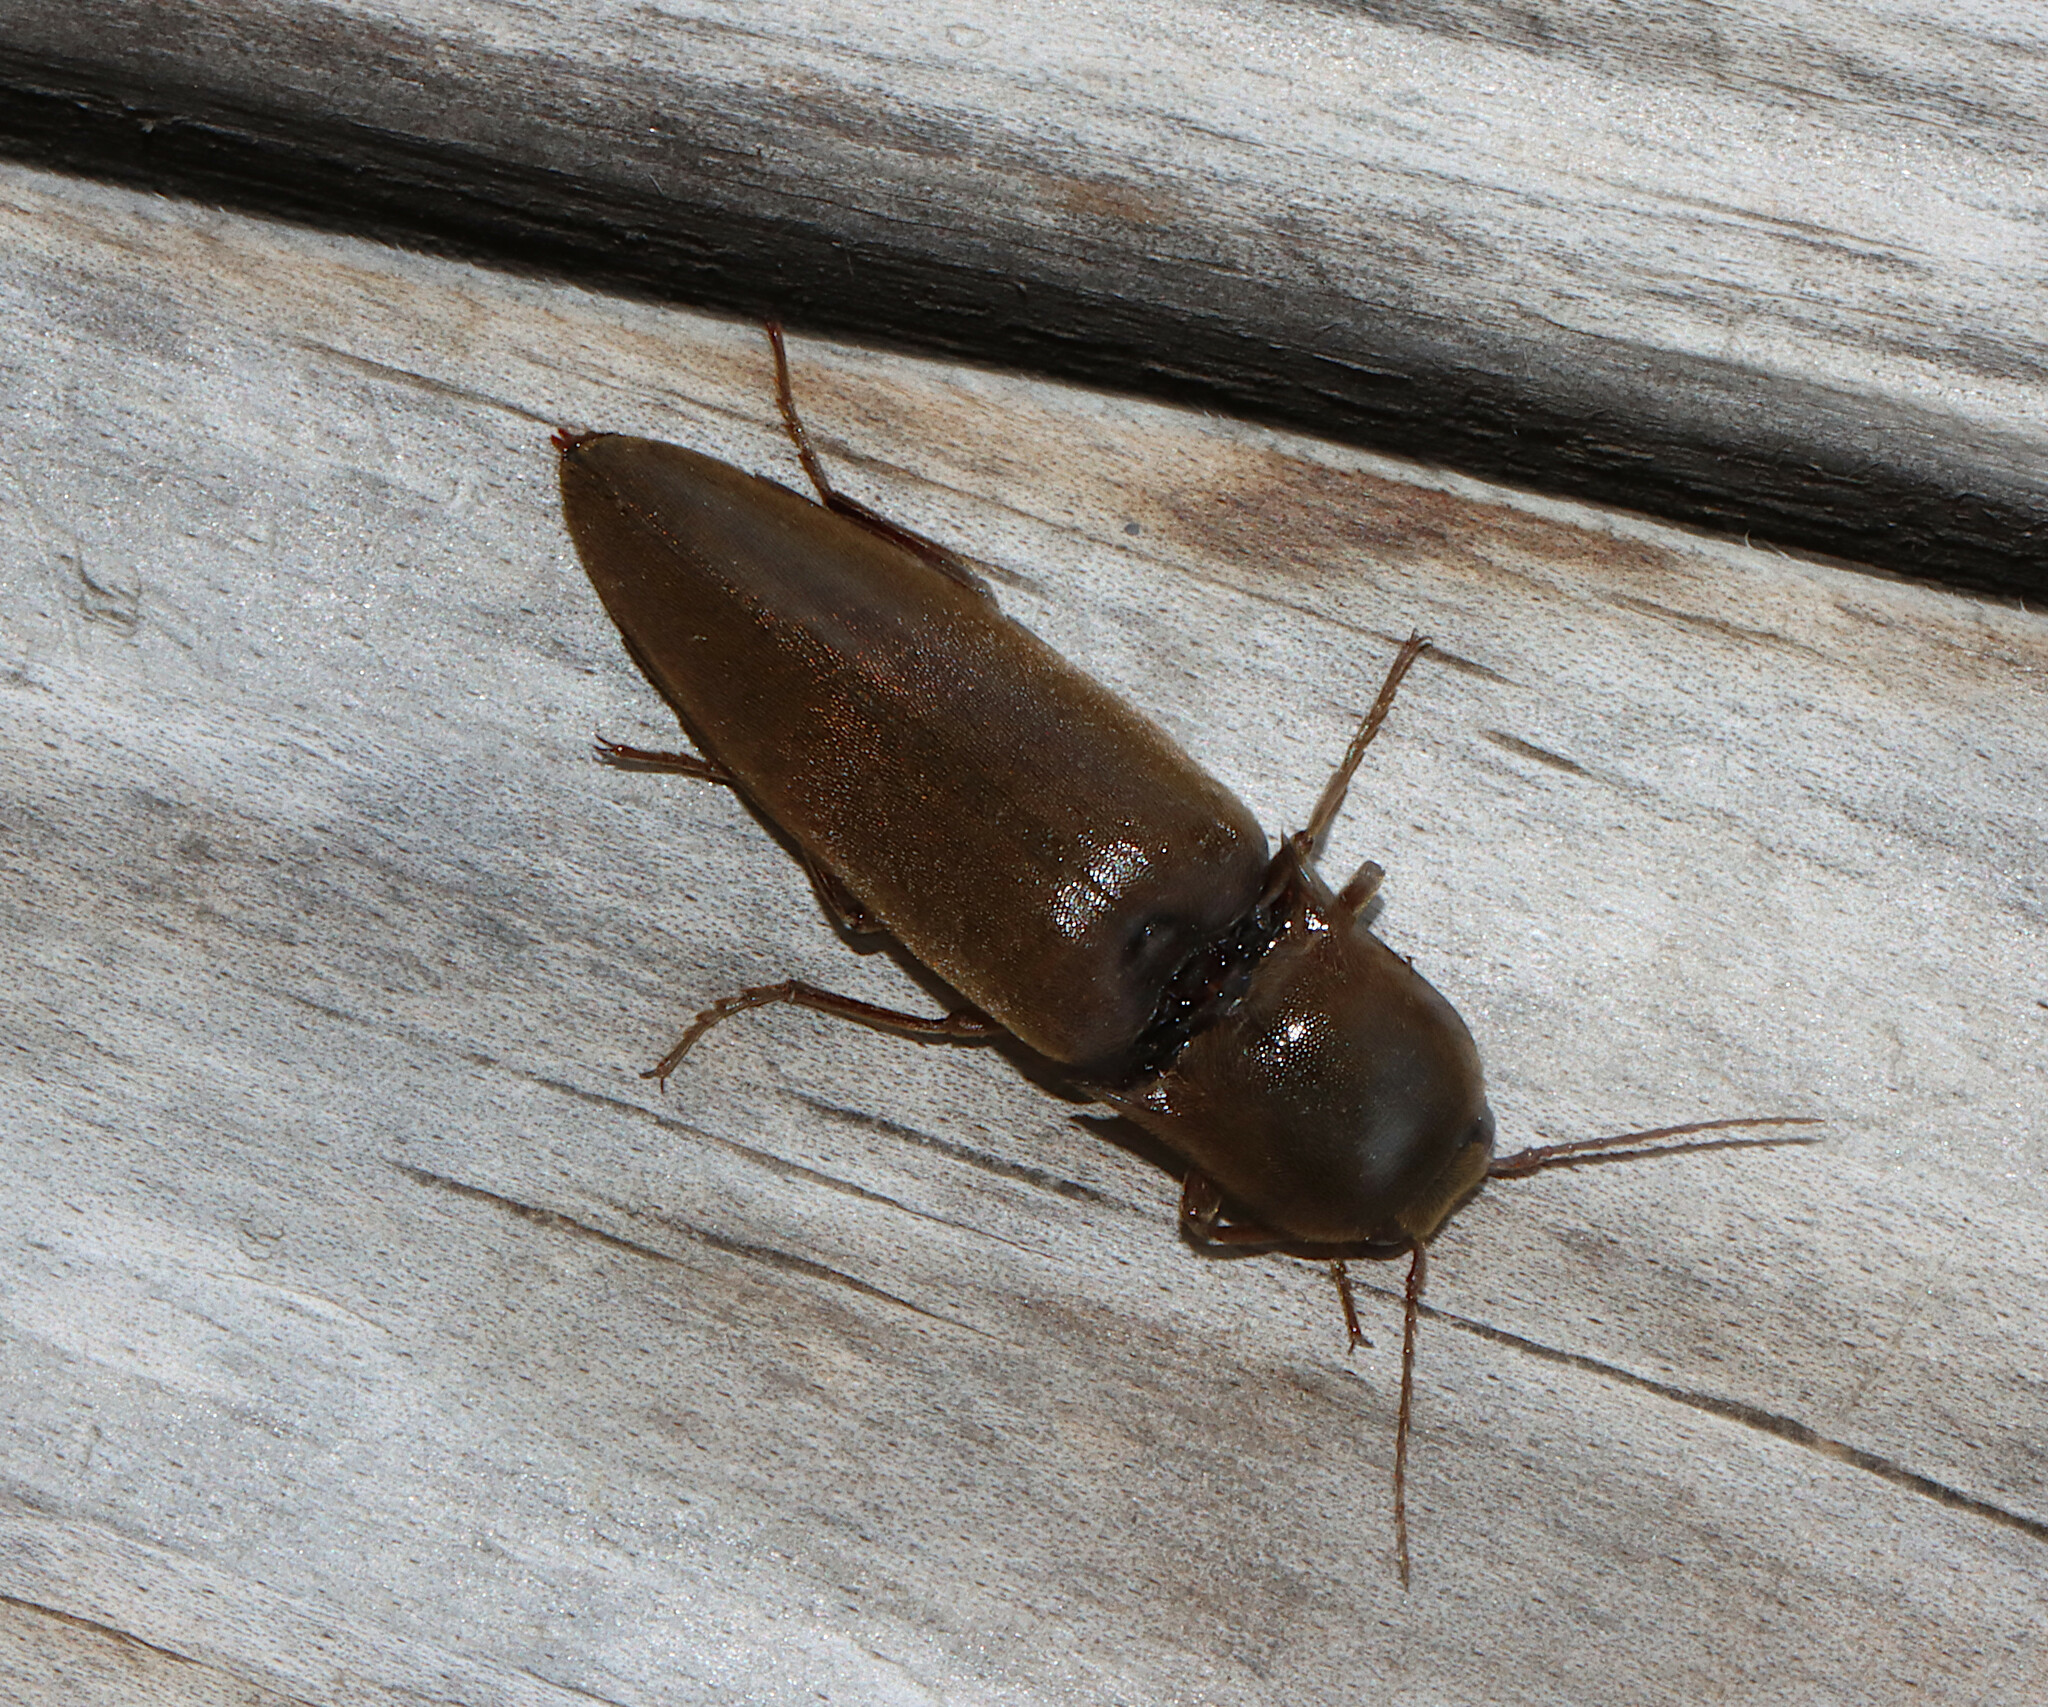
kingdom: Animalia
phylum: Arthropoda
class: Insecta
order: Coleoptera
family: Elateridae
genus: Orthostethus
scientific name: Orthostethus infuscatus
